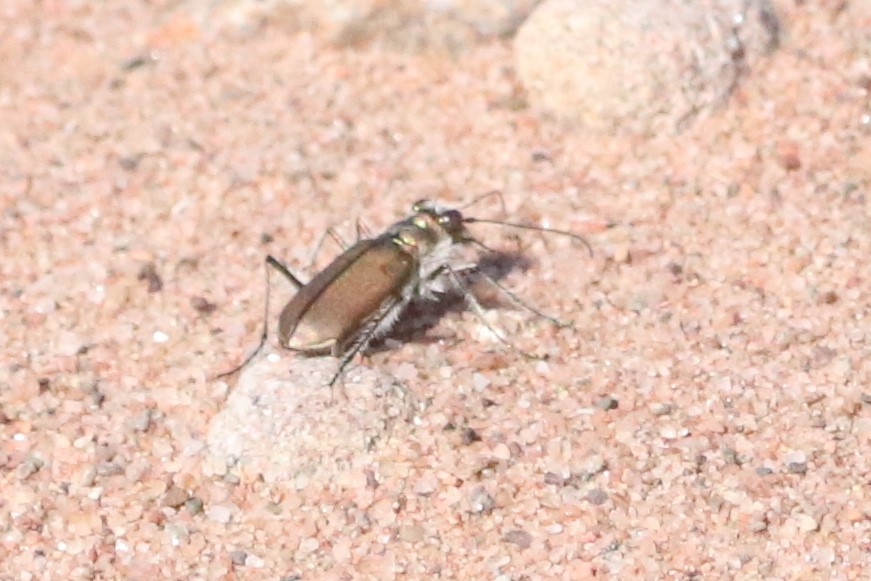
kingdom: Animalia
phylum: Arthropoda
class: Insecta
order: Coleoptera
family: Carabidae
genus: Cicindela
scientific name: Cicindela hirticollis
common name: Hairy-necked tiger beetle
